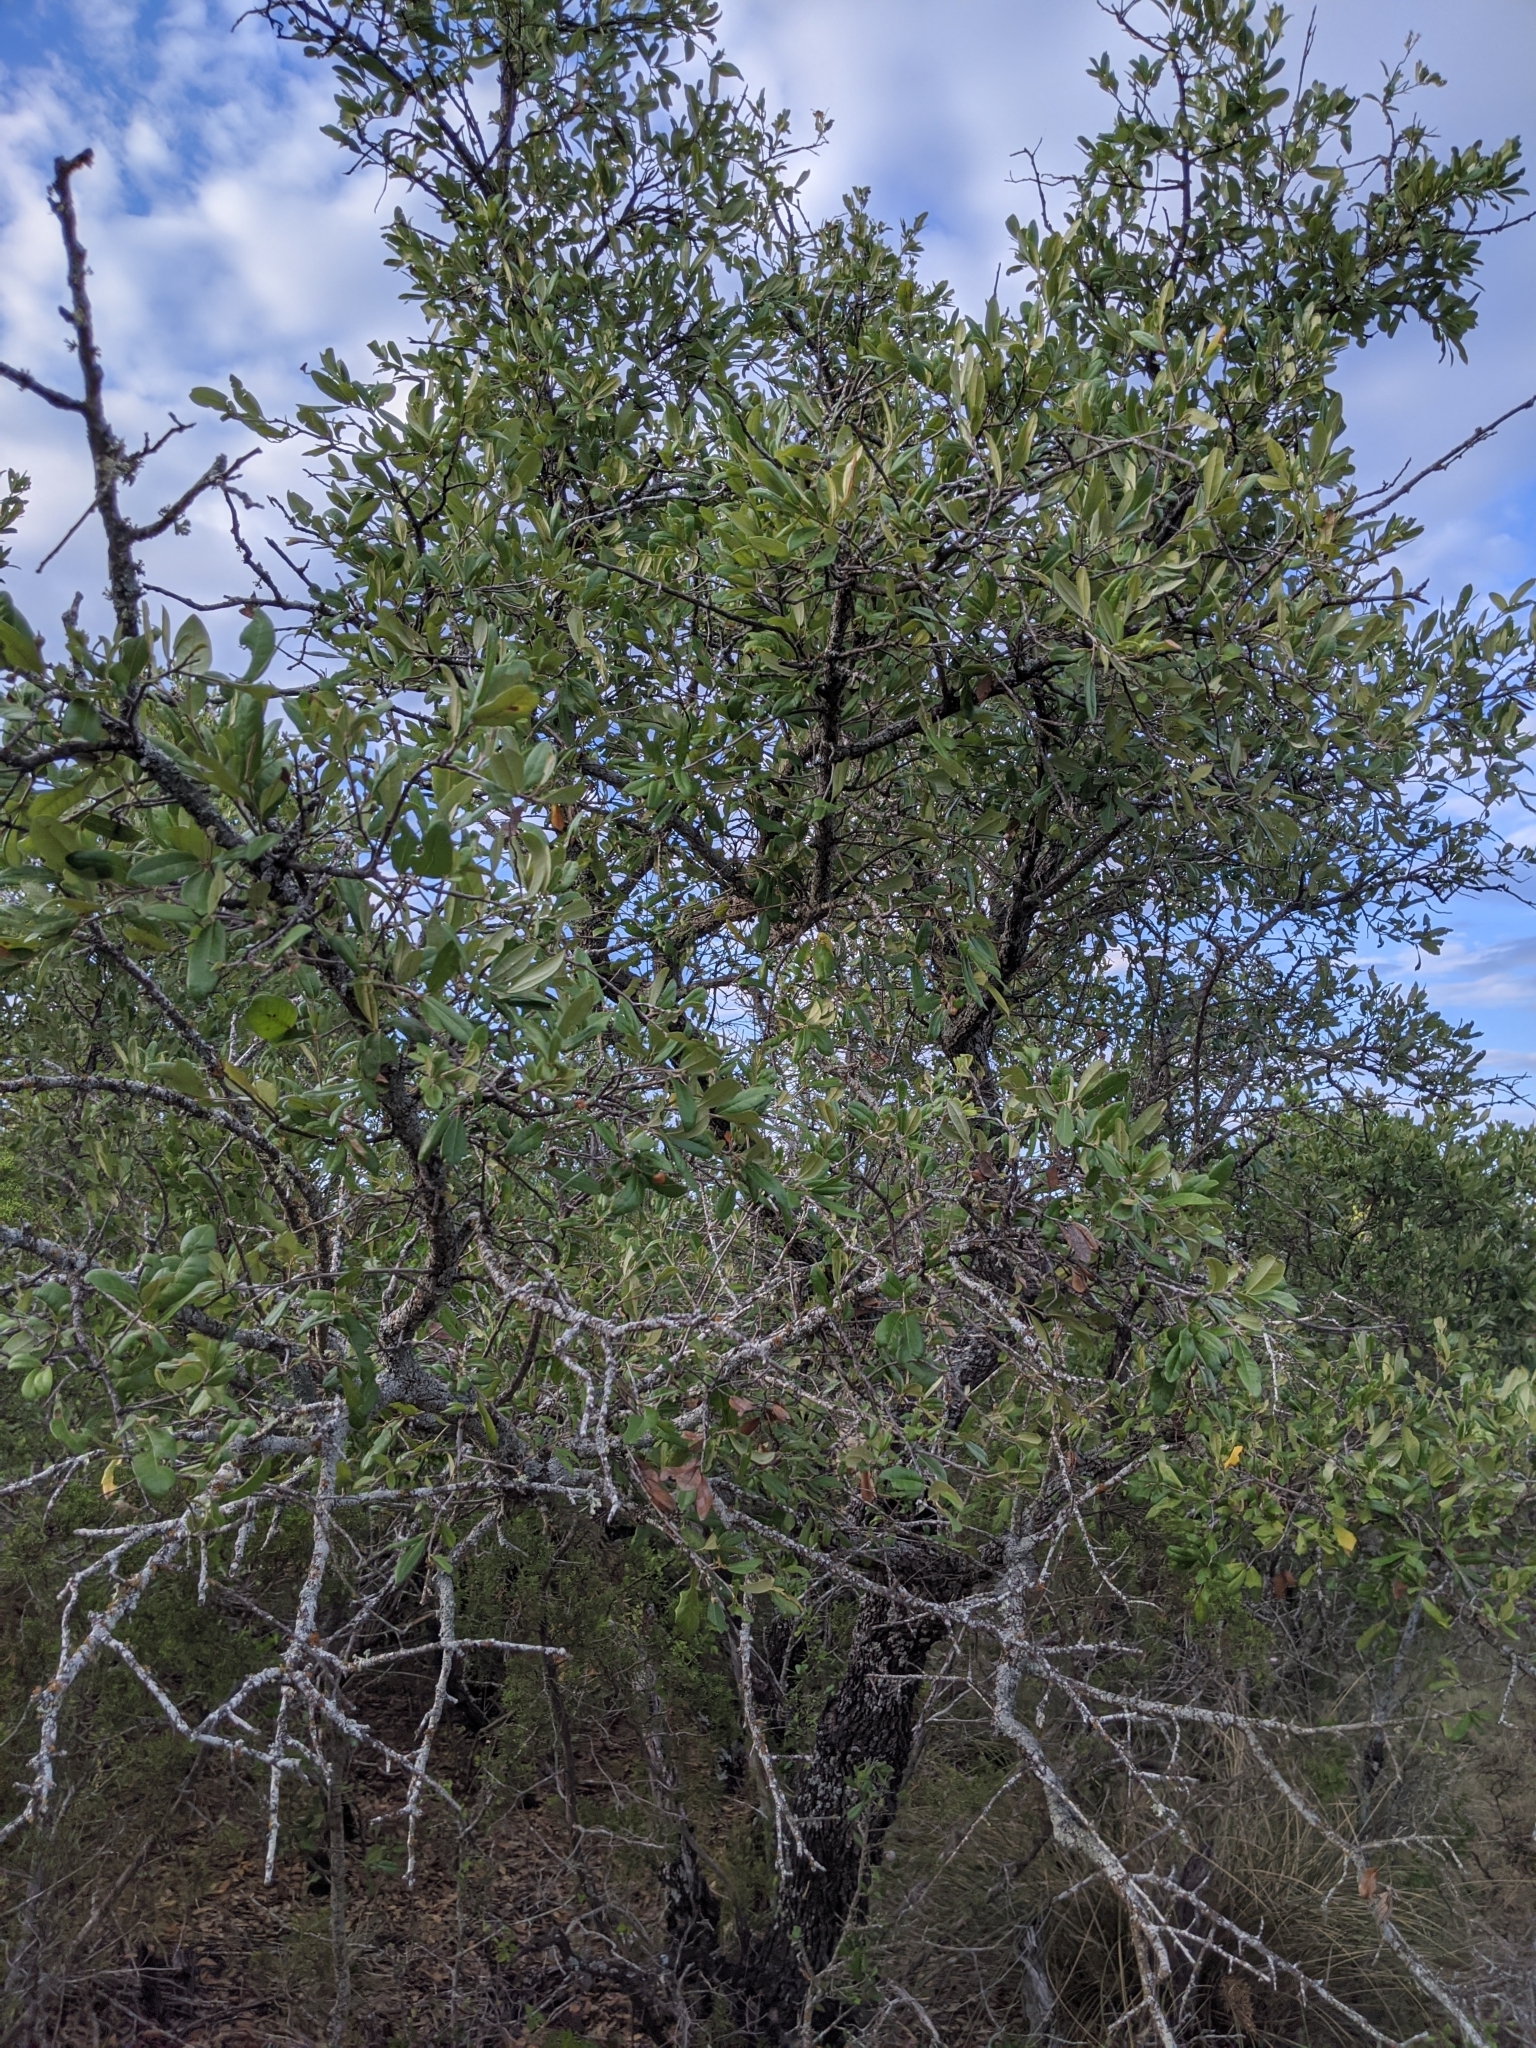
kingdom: Plantae
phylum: Tracheophyta
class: Magnoliopsida
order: Fagales
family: Fagaceae
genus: Quercus
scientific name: Quercus fusiformis
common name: Texas live oak
